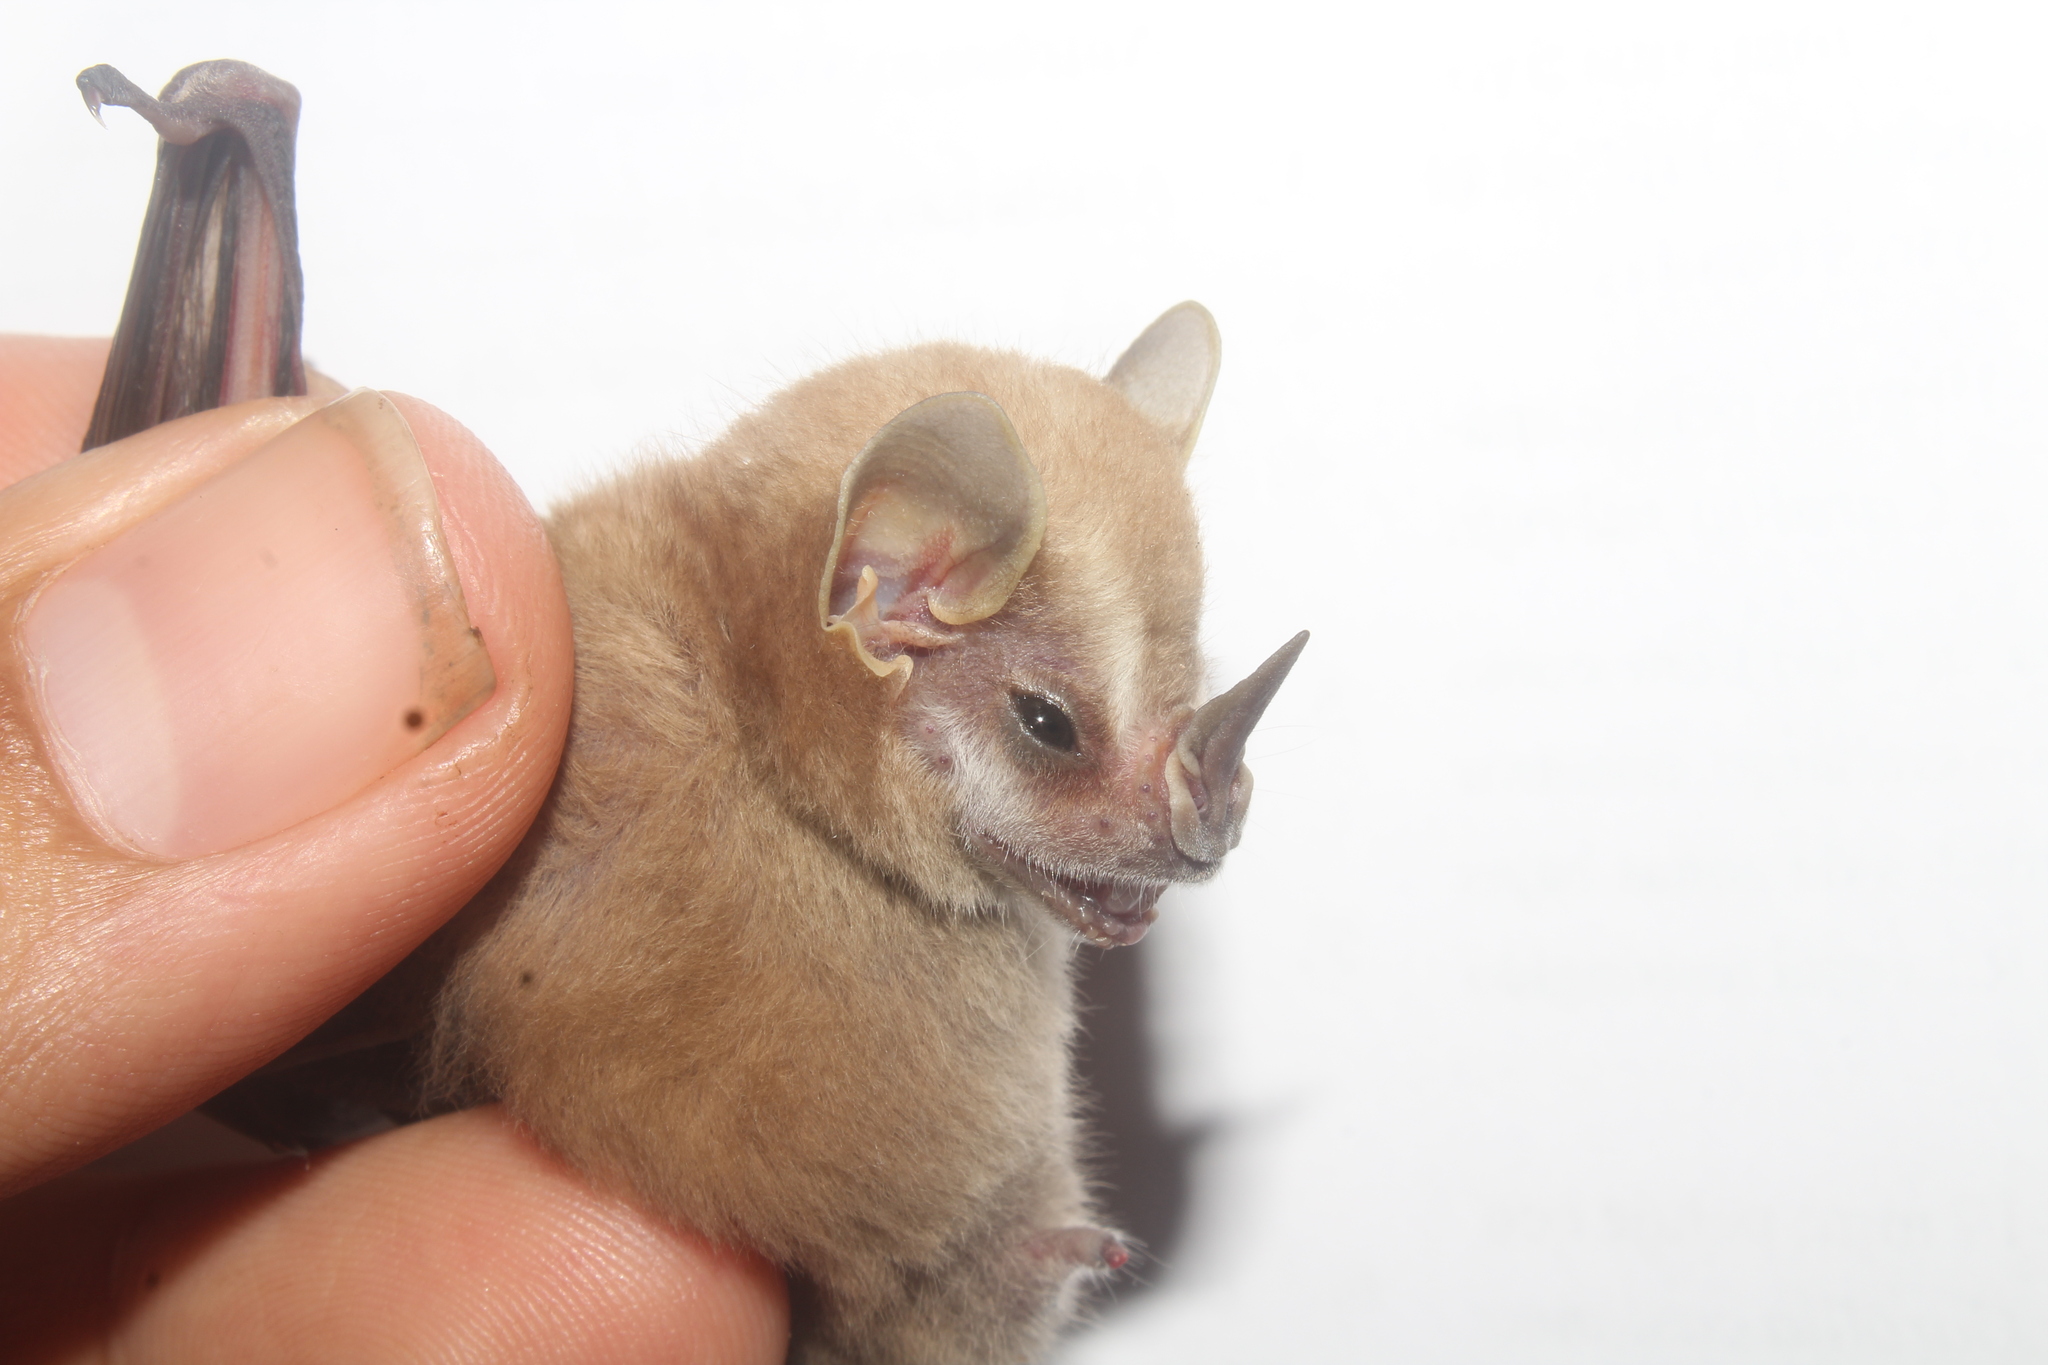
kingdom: Animalia
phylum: Chordata
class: Mammalia
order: Chiroptera
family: Phyllostomidae
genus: Vampyressa
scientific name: Vampyressa thyone
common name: Northern little yellow-eared bat
